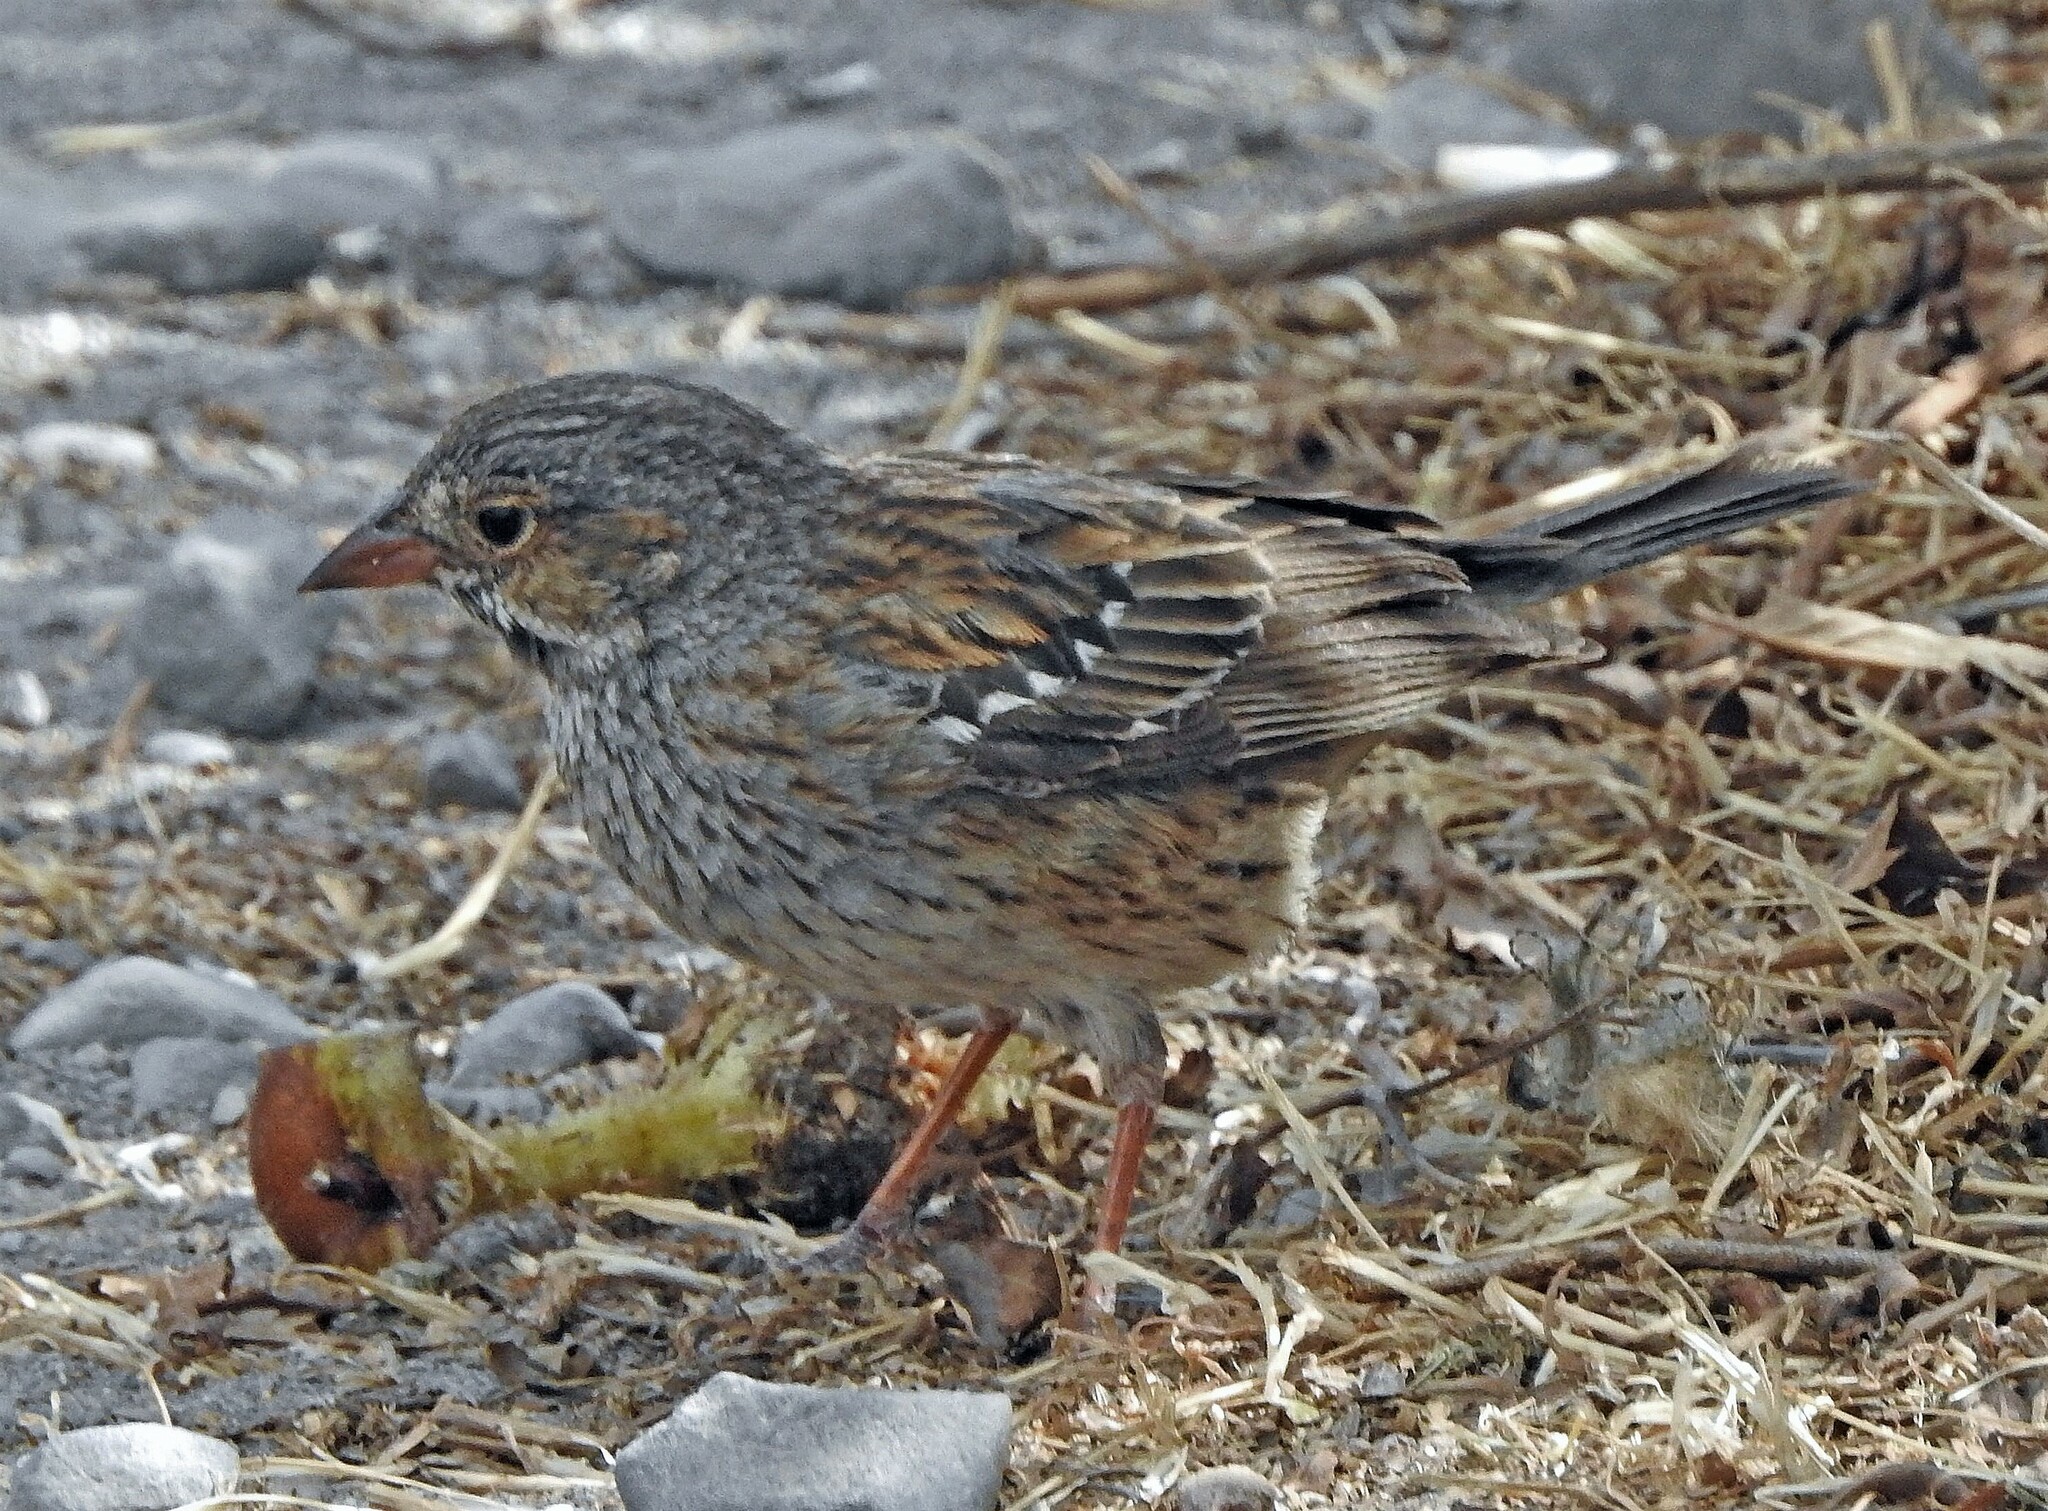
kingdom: Animalia
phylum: Chordata
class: Aves
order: Passeriformes
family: Thraupidae
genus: Rhopospina
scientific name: Rhopospina fruticeti
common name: Mourning sierra finch
